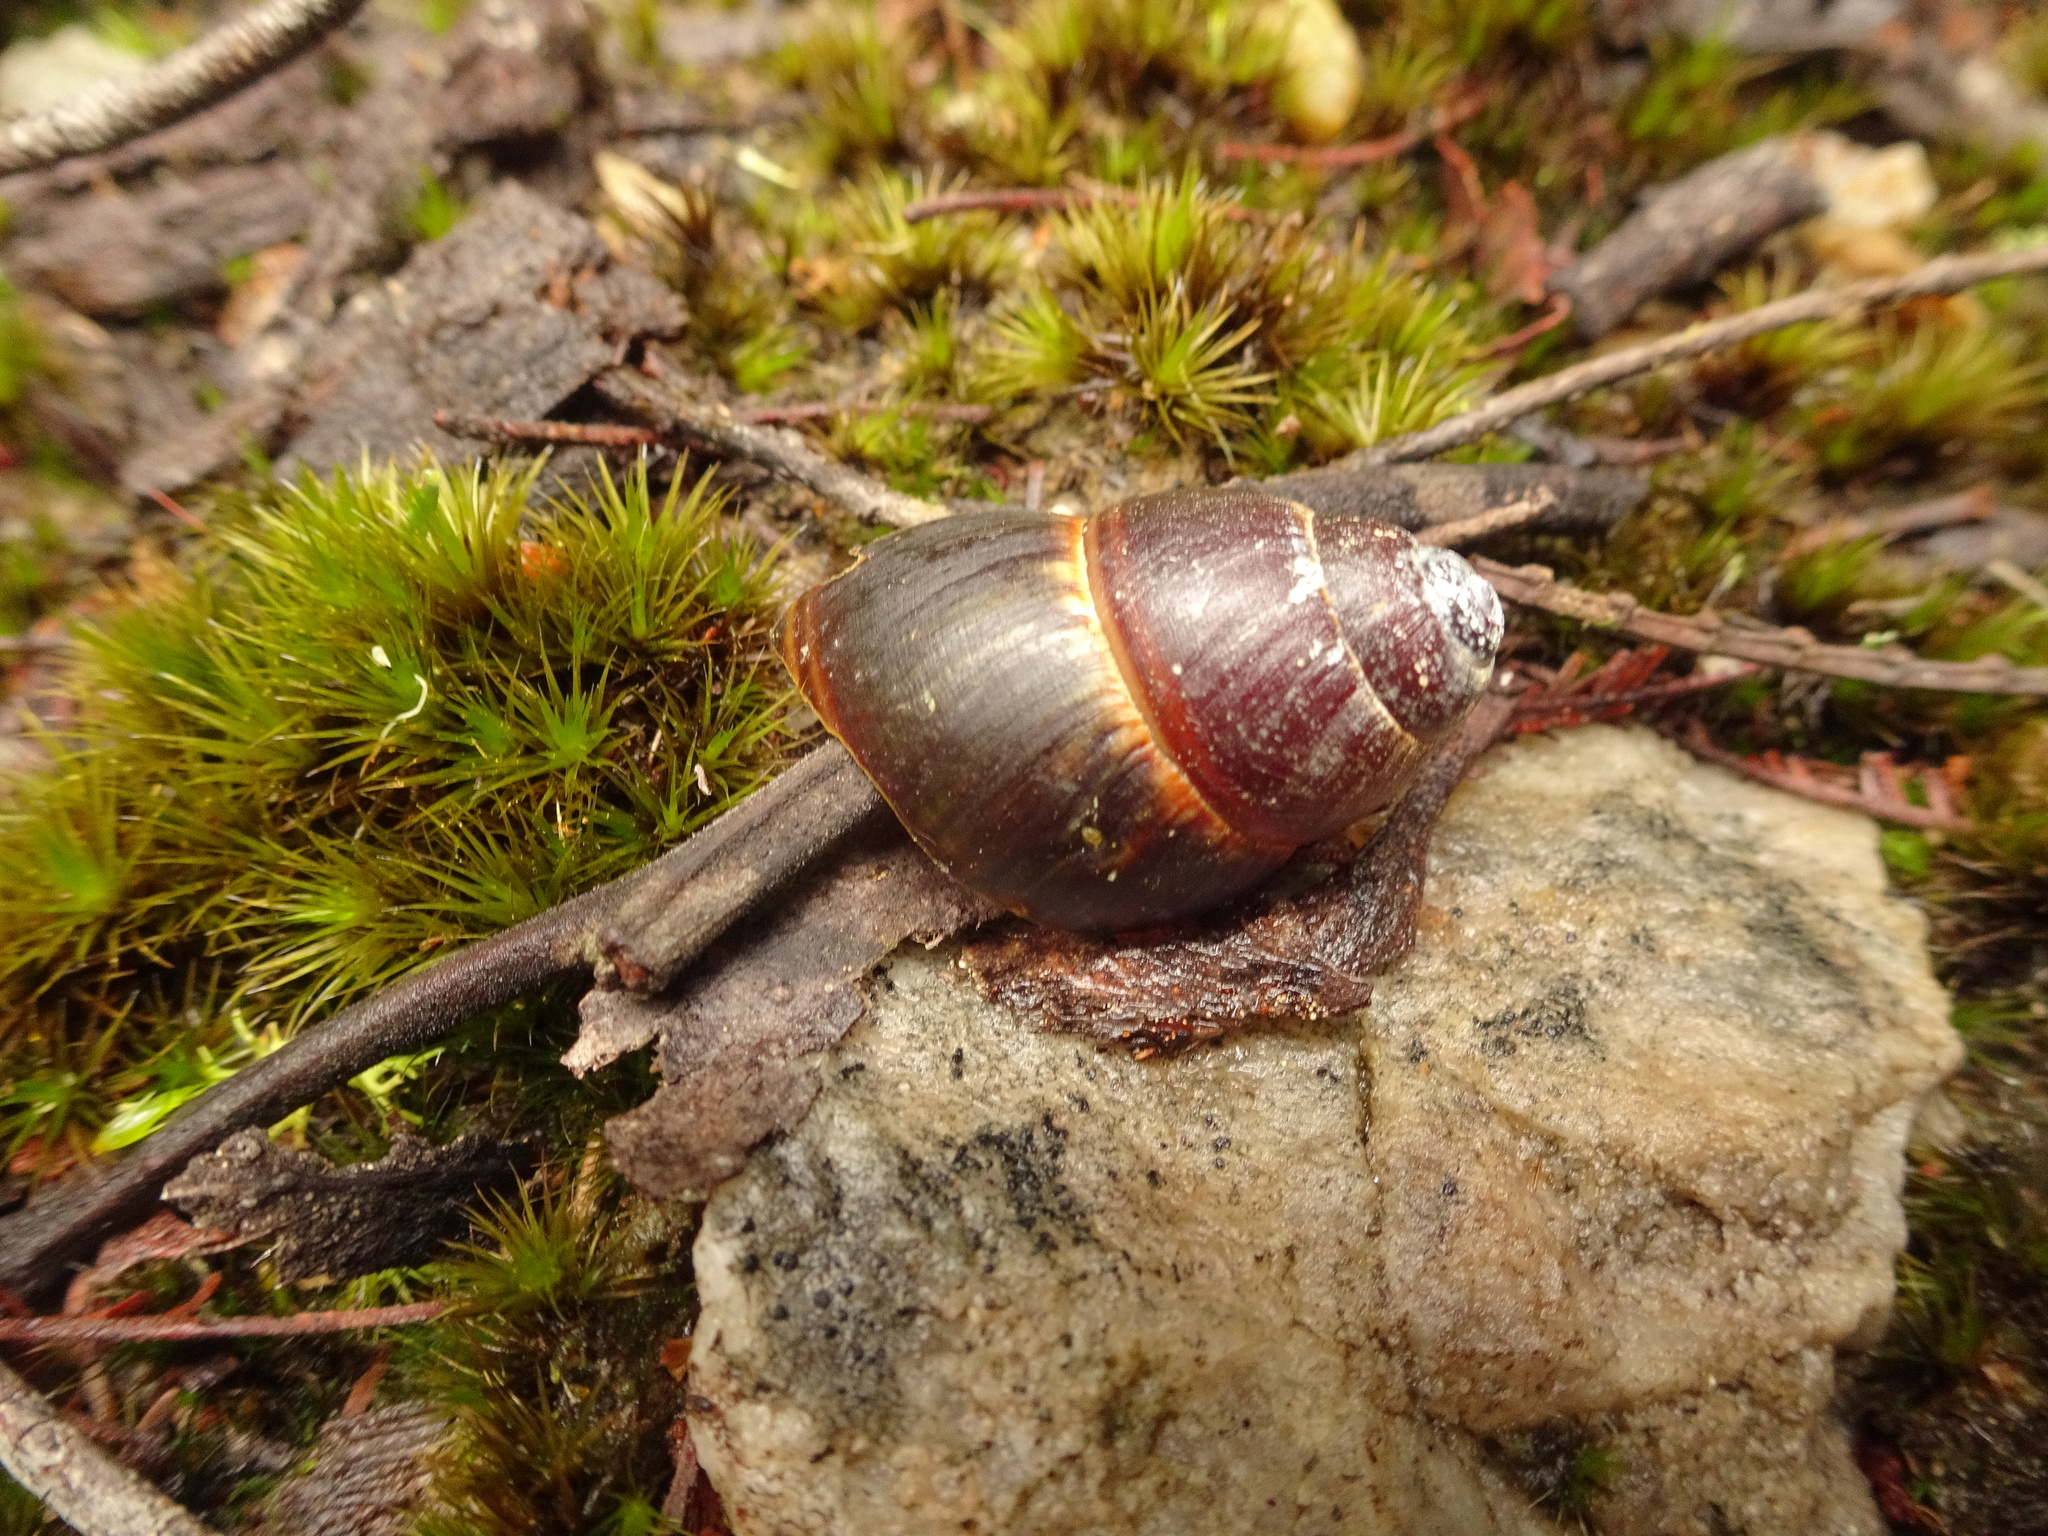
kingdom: Animalia
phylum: Mollusca
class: Gastropoda
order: Stylommatophora
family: Caryodidae
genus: Caryodes
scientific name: Caryodes dufresnii
